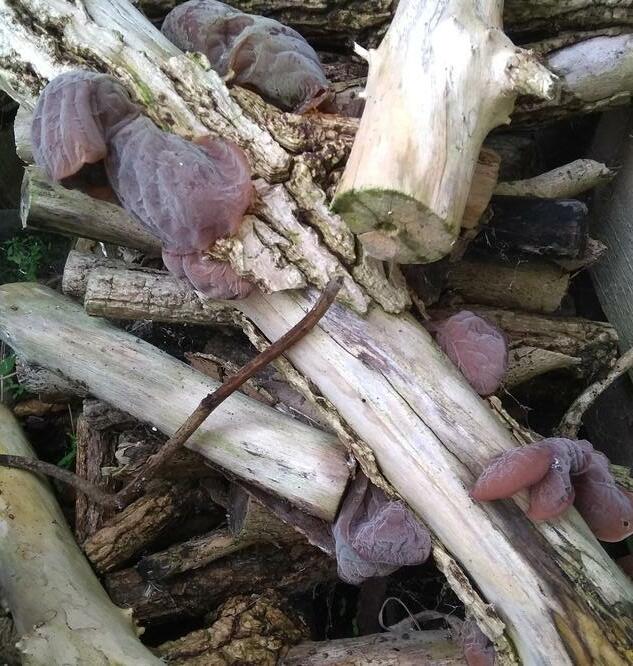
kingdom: Fungi
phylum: Basidiomycota
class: Agaricomycetes
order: Auriculariales
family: Auriculariaceae
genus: Auricularia
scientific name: Auricularia auricula-judae
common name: Jelly ear
